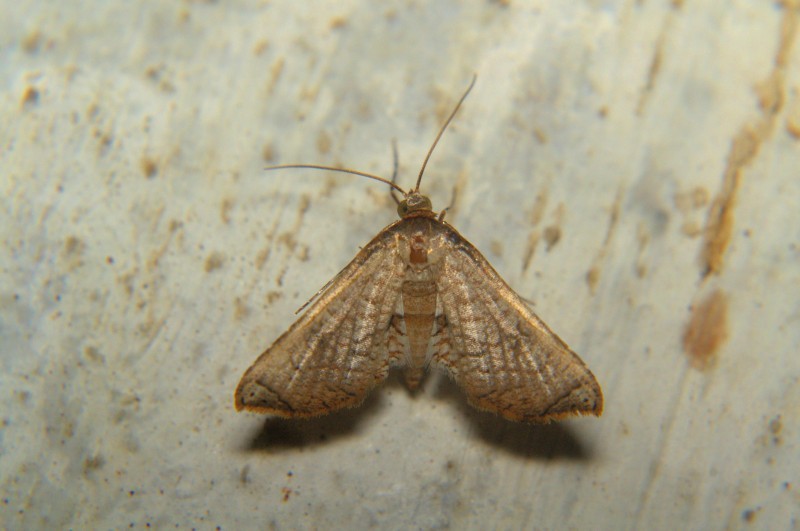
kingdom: Animalia
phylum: Arthropoda
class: Insecta
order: Lepidoptera
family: Thyrididae
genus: Hypolamprus
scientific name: Hypolamprus bastialis
